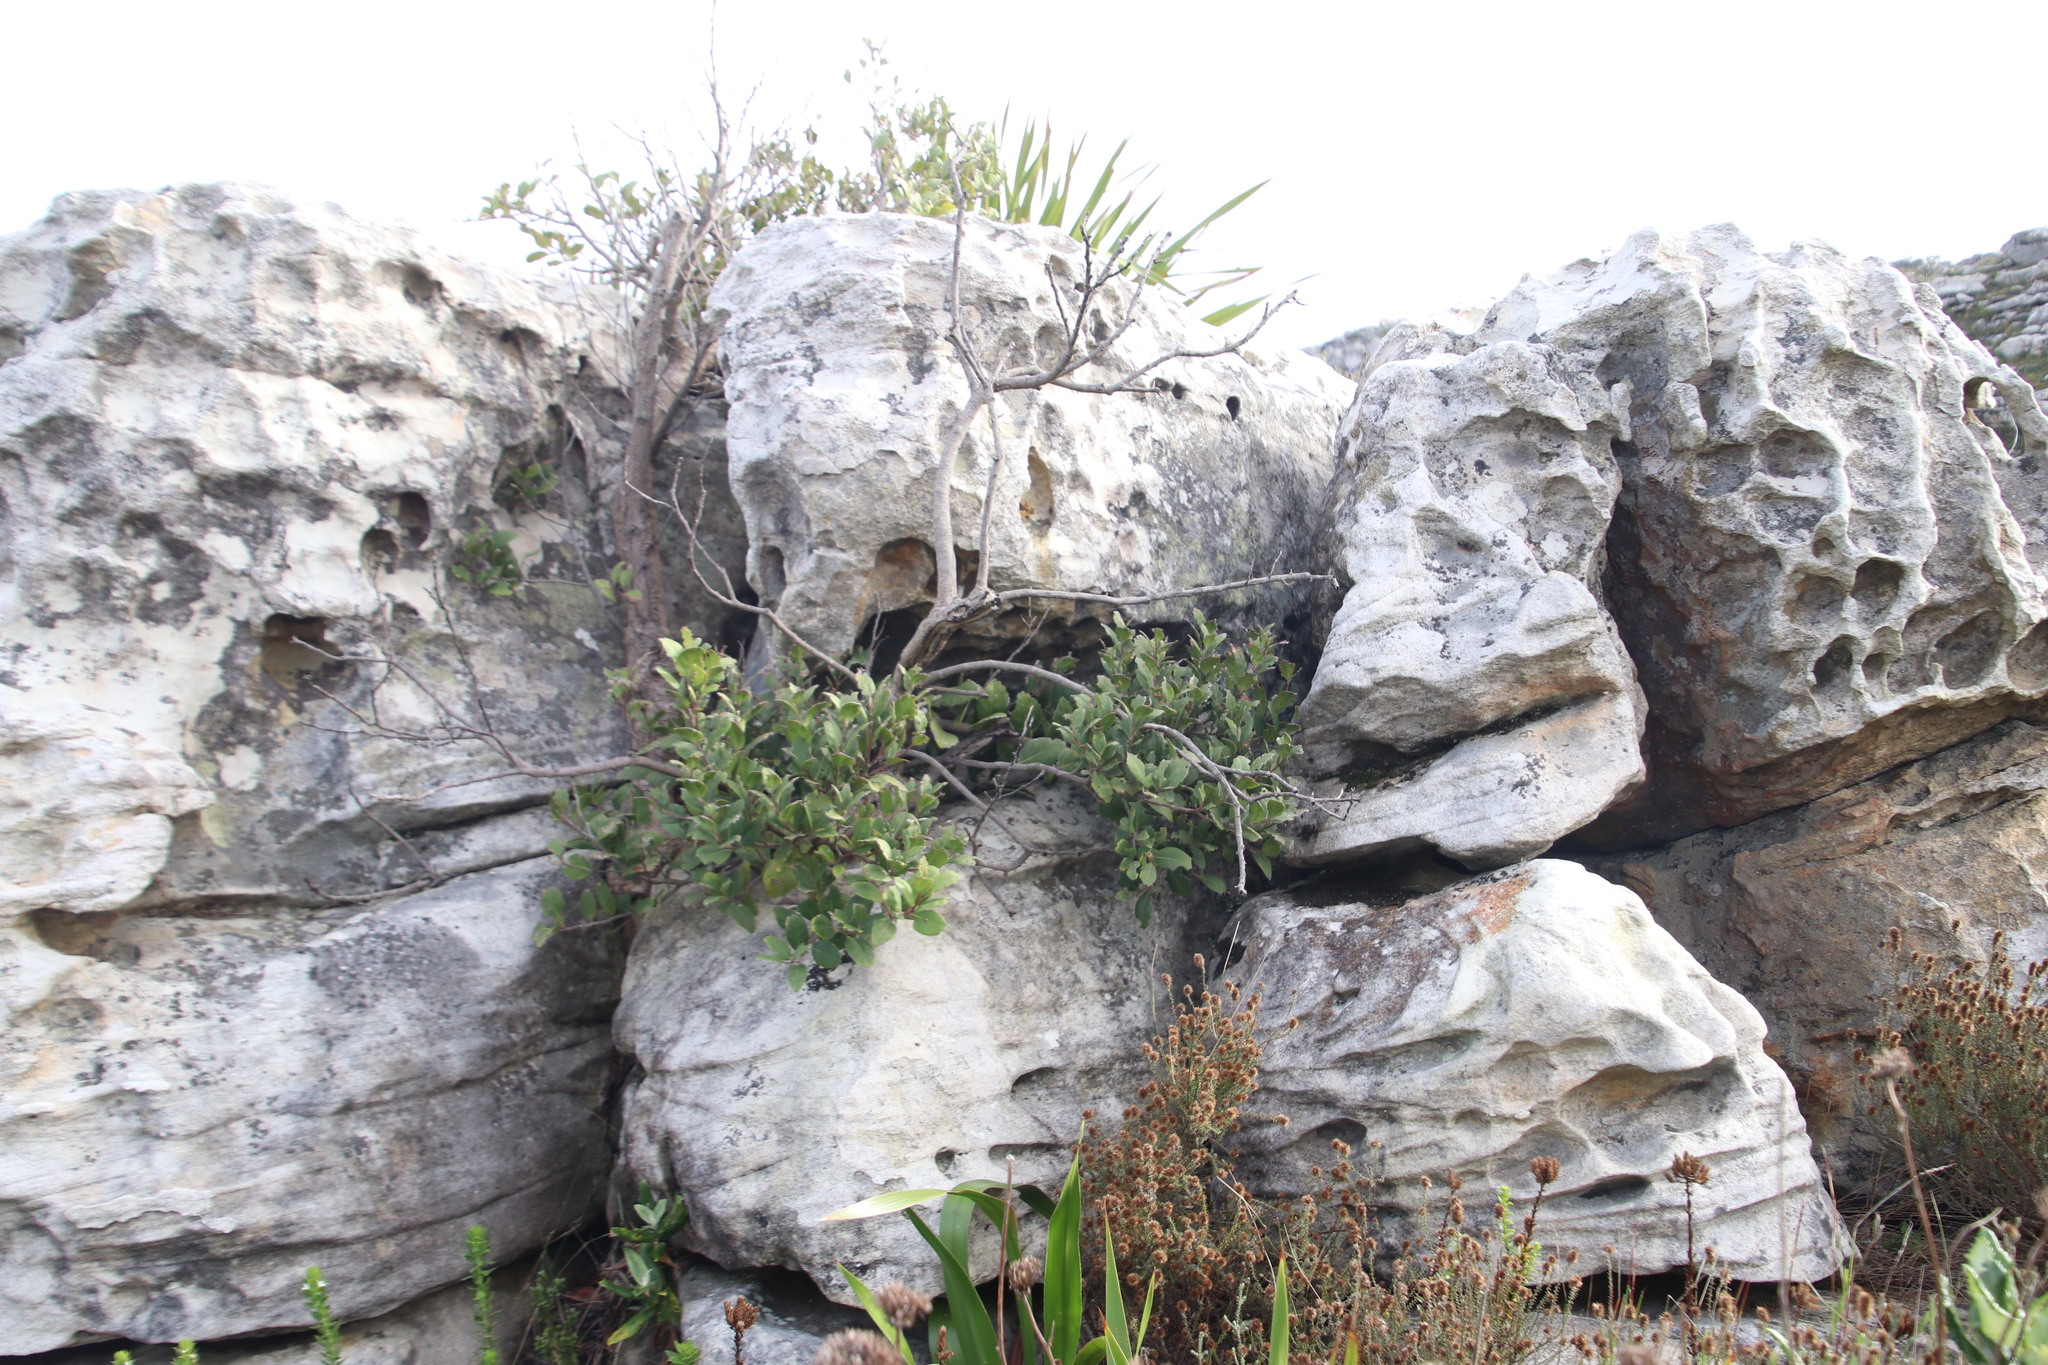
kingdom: Plantae
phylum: Tracheophyta
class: Magnoliopsida
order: Celastrales
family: Celastraceae
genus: Gymnosporia
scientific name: Gymnosporia laurina
